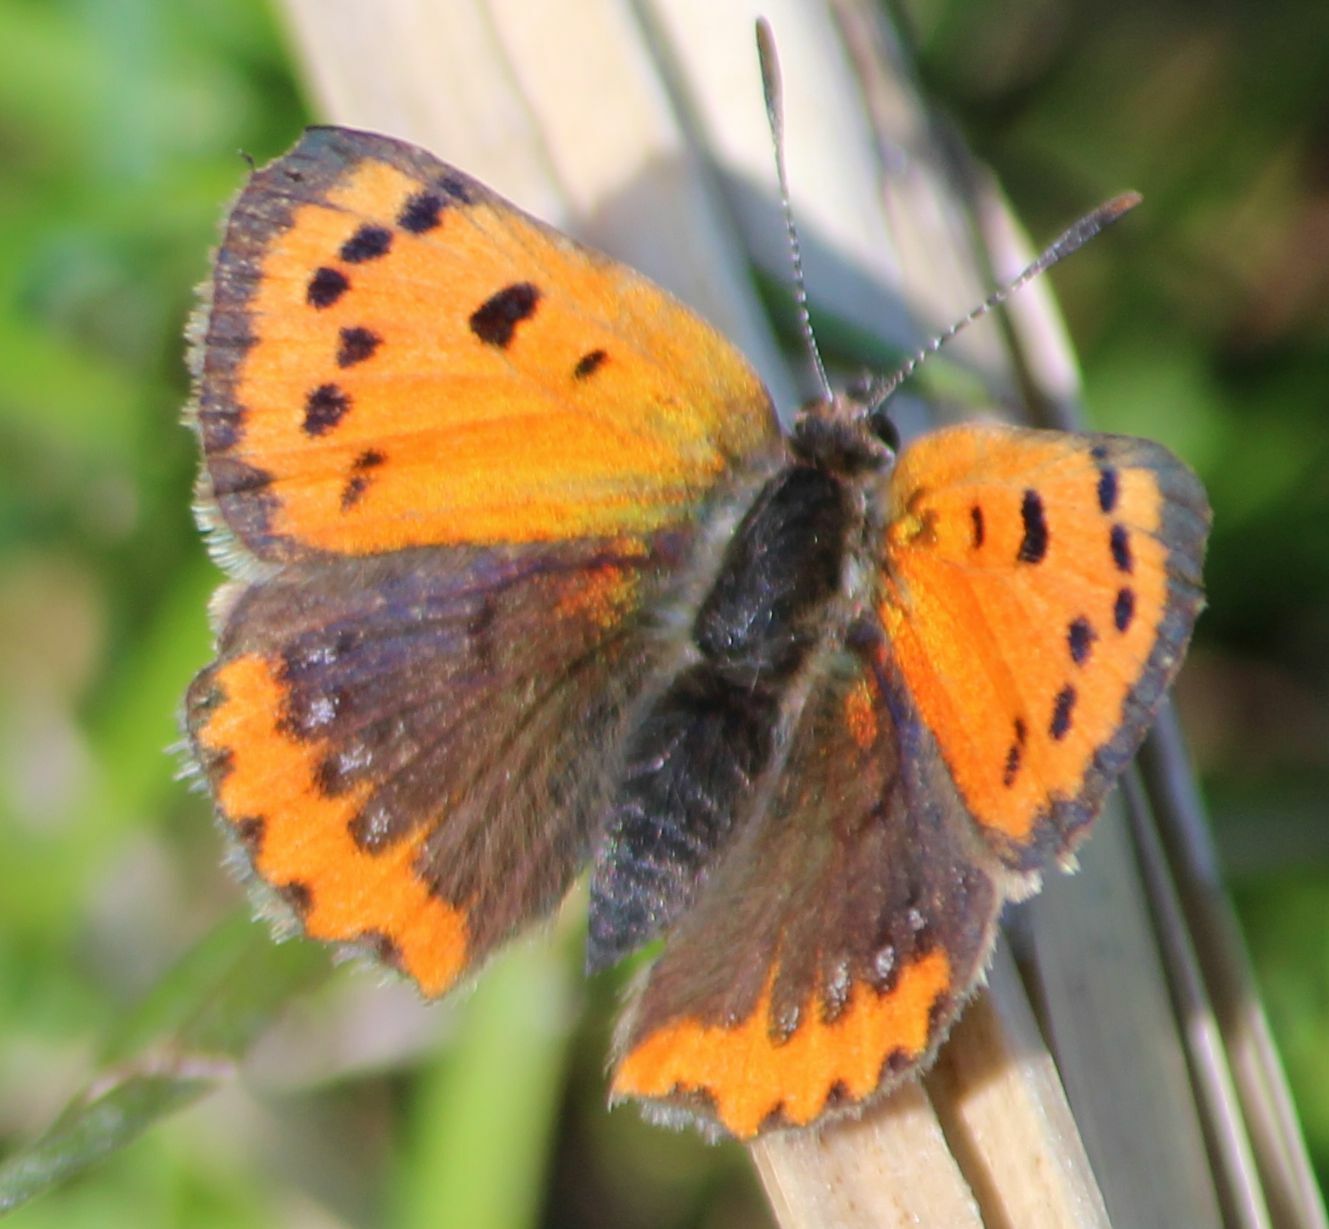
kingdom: Animalia
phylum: Arthropoda
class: Insecta
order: Lepidoptera
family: Lycaenidae
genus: Lycaena
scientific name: Lycaena phlaeas
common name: Small copper
